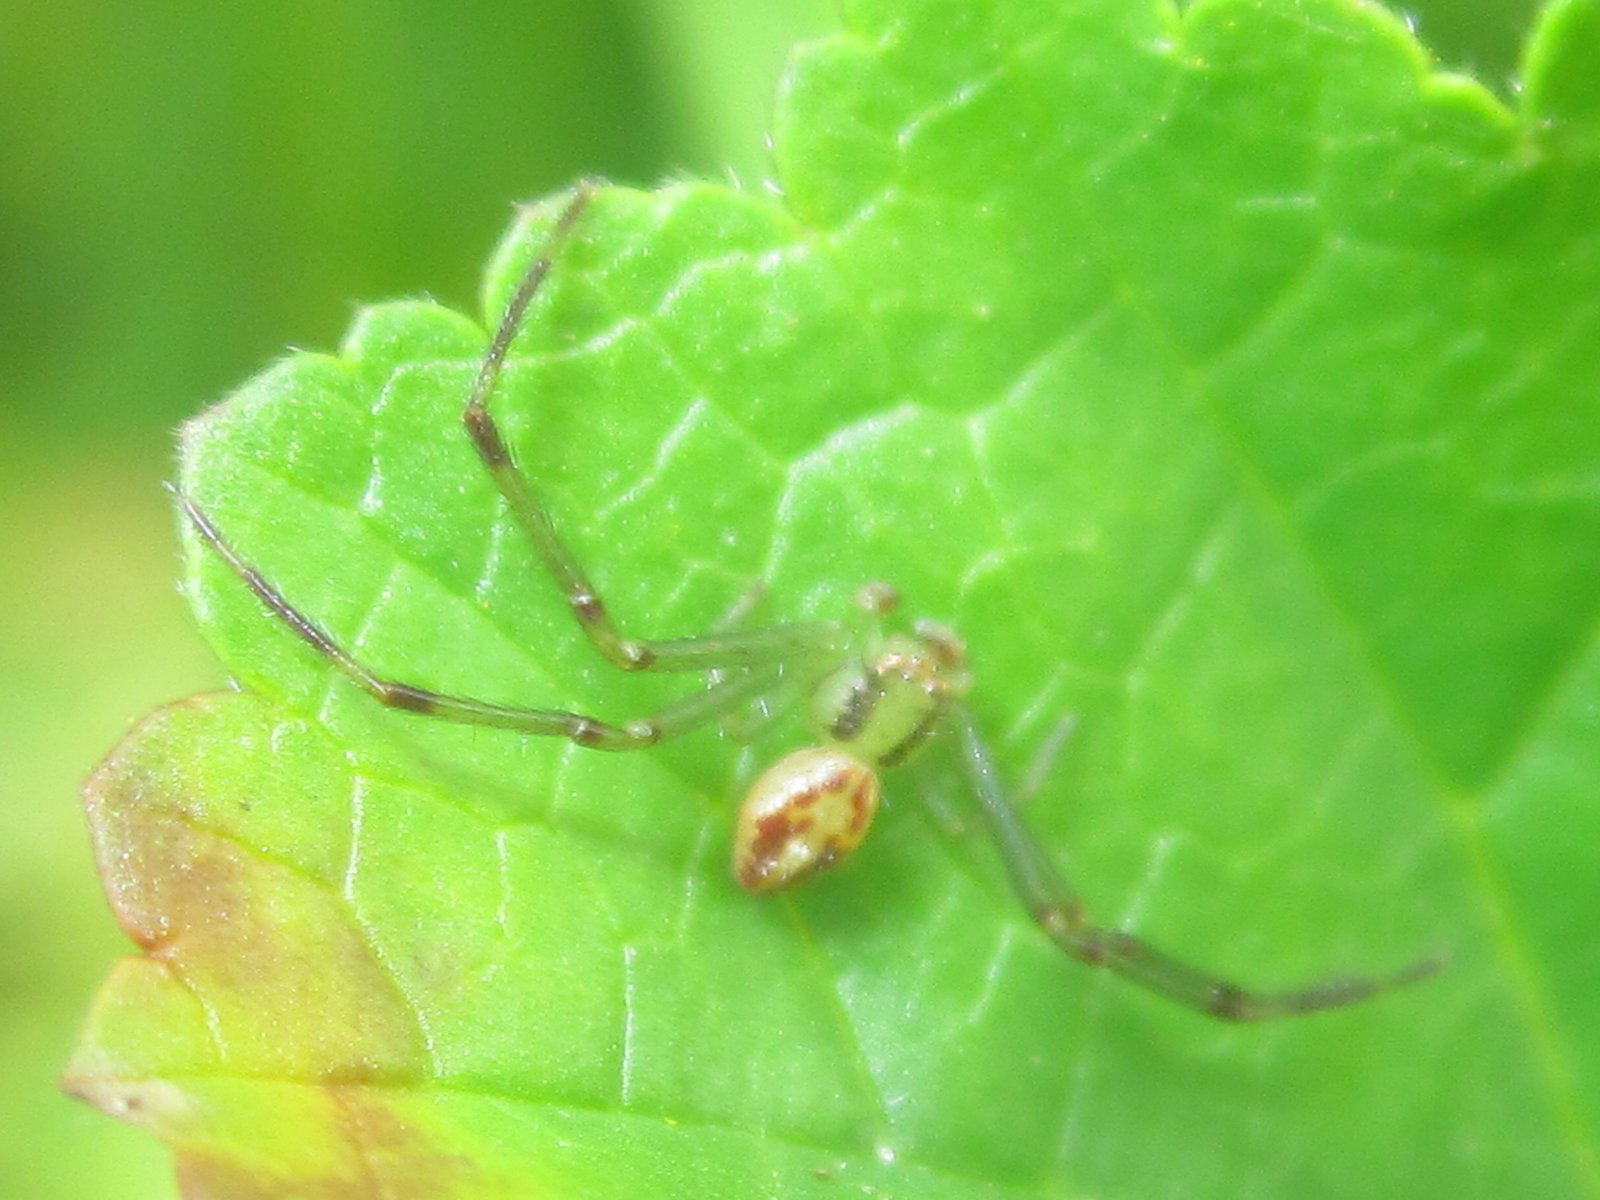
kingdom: Animalia
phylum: Arthropoda
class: Arachnida
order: Araneae
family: Thomisidae
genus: Misumenops
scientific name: Misumenops temibilis
